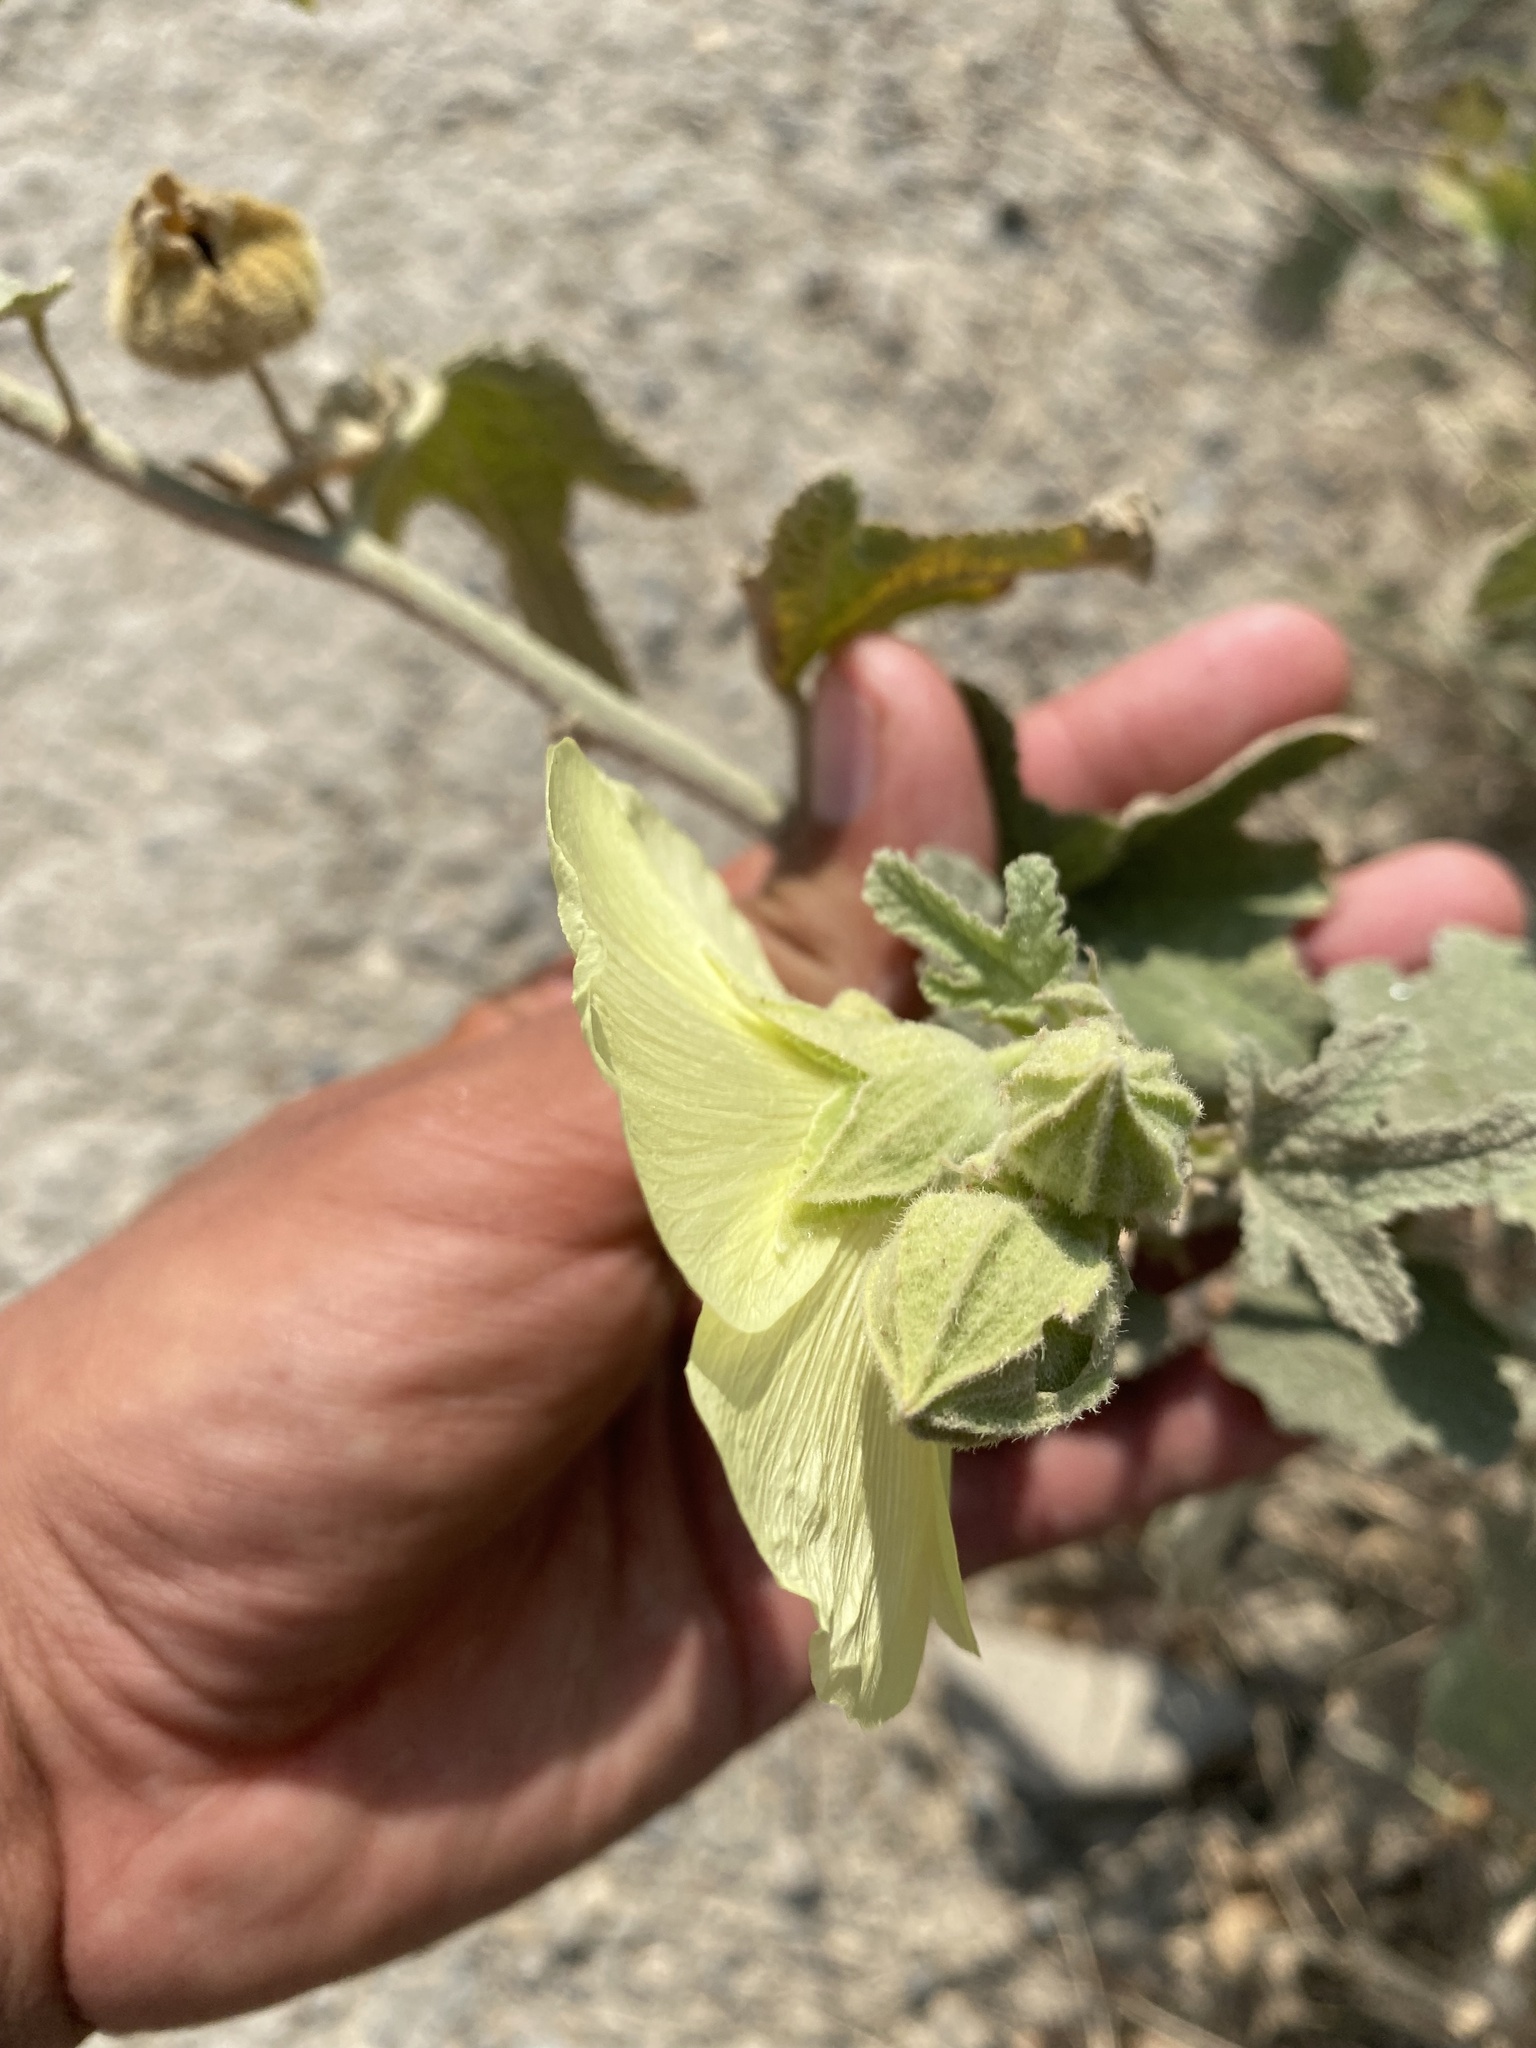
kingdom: Plantae
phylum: Tracheophyta
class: Magnoliopsida
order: Malvales
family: Malvaceae
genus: Alcea
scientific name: Alcea rugosa
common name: Russian hollyhock
